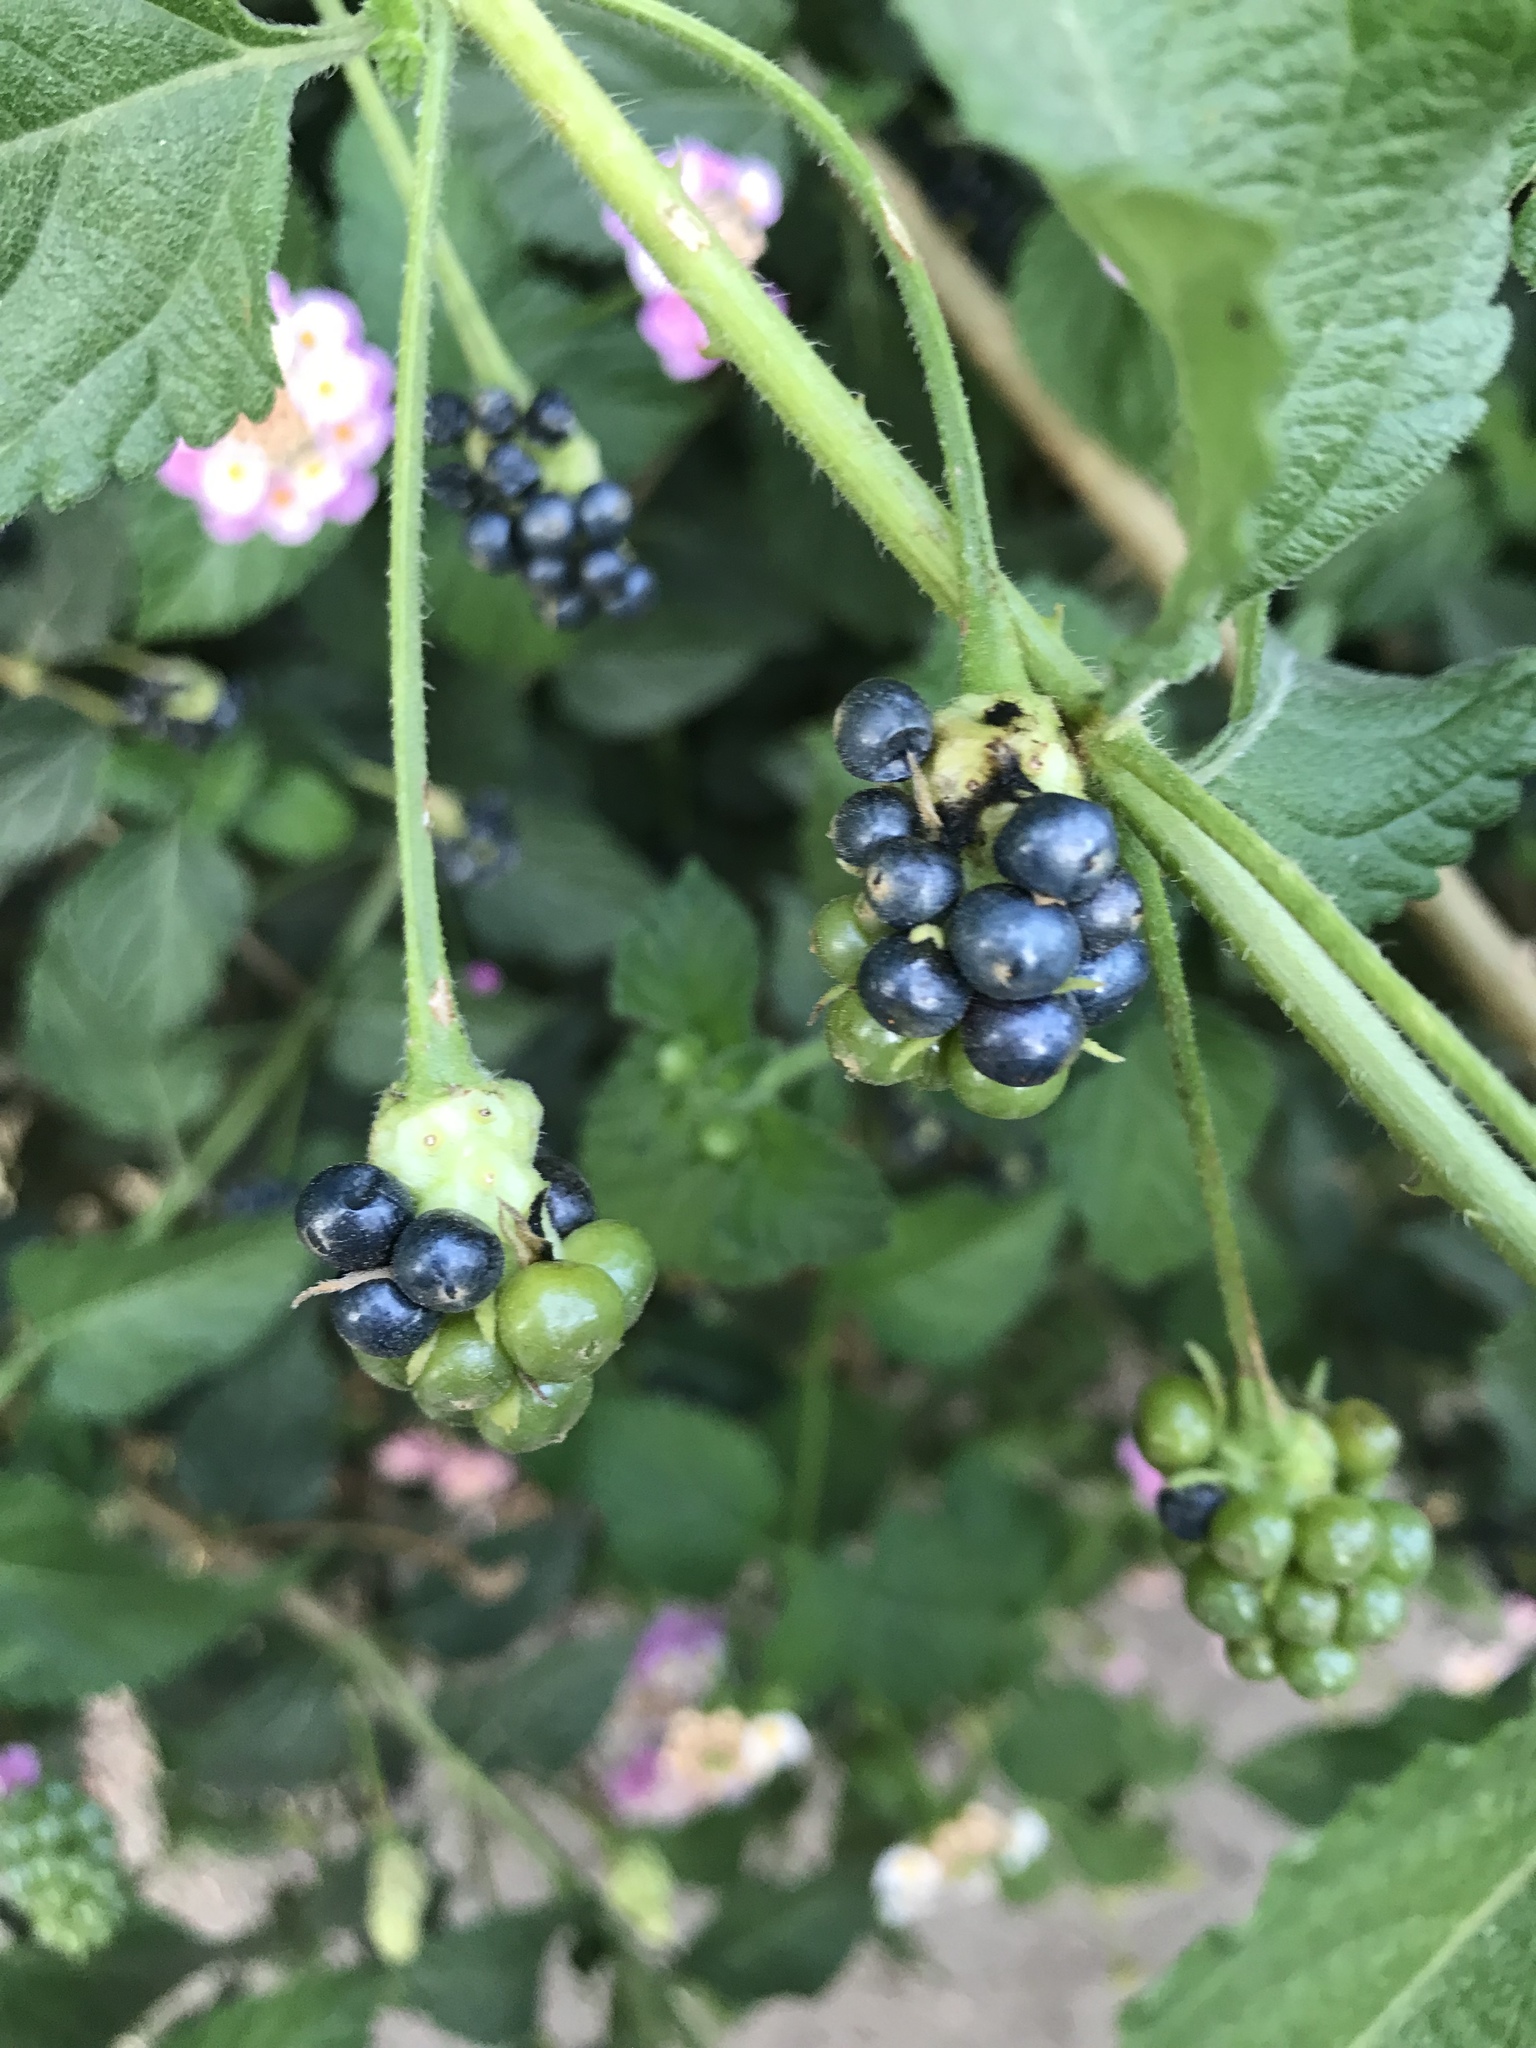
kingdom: Plantae
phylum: Tracheophyta
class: Magnoliopsida
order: Lamiales
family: Verbenaceae
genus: Lantana
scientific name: Lantana camara
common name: Lantana
